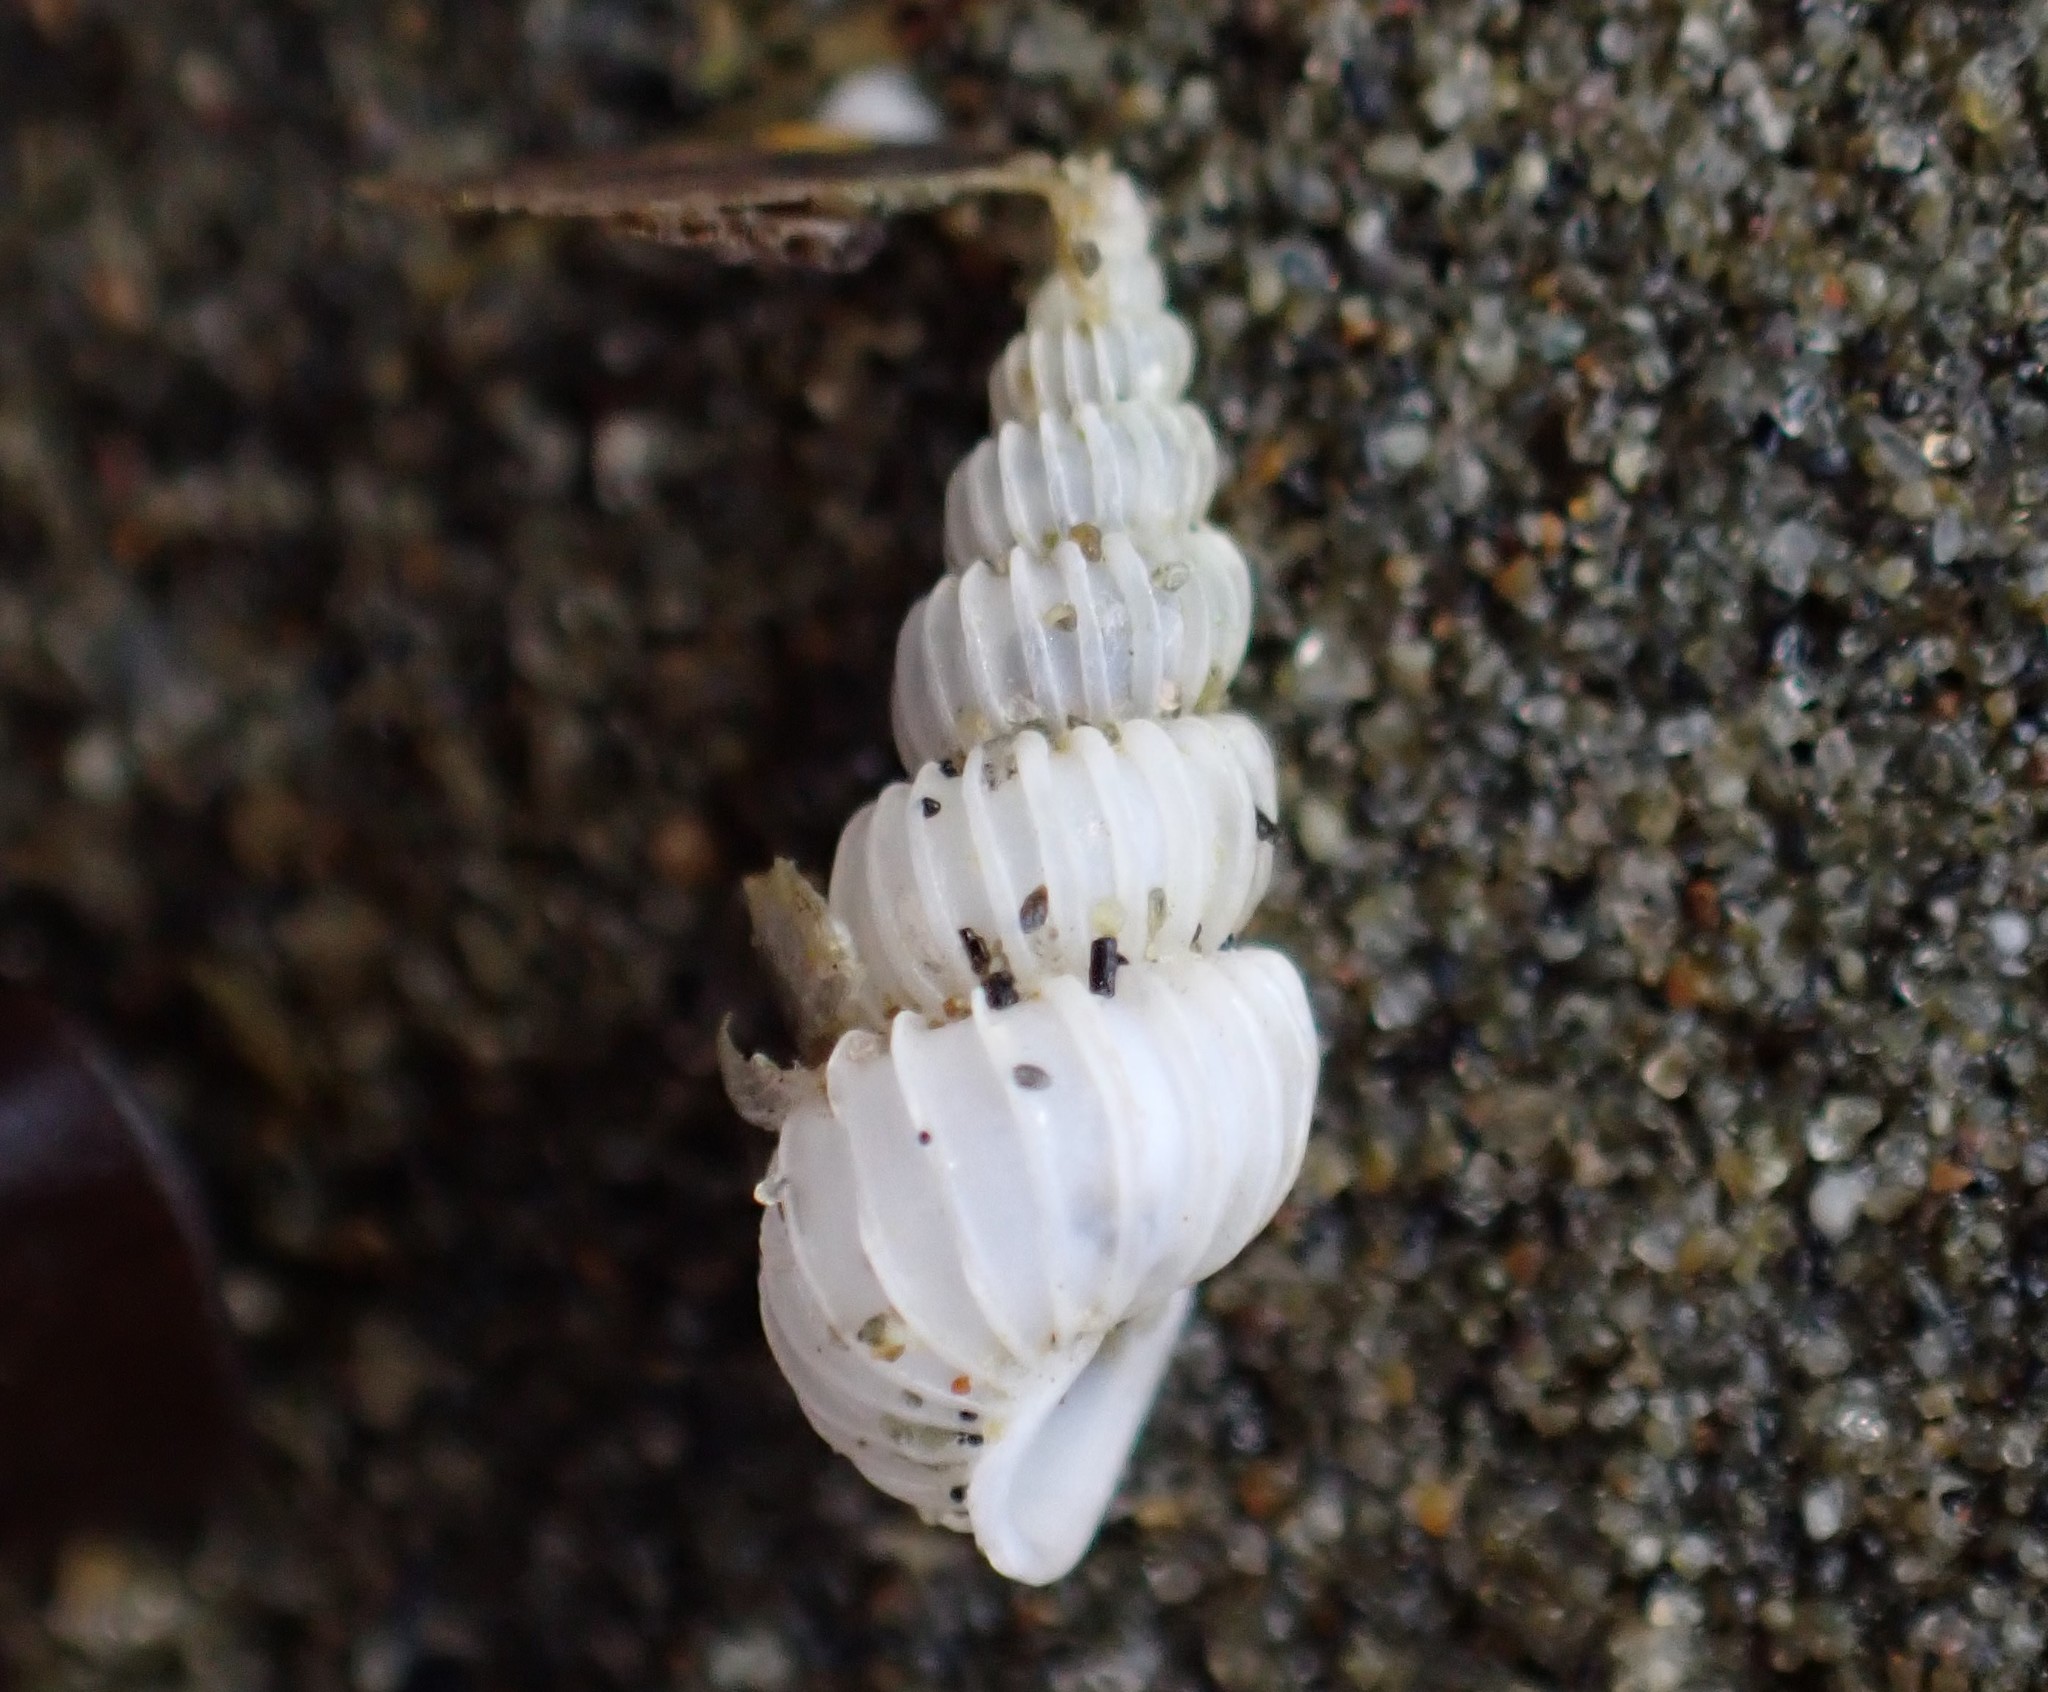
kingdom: Animalia
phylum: Mollusca
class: Gastropoda
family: Epitoniidae
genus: Epitonium
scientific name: Epitonium jukesianum
